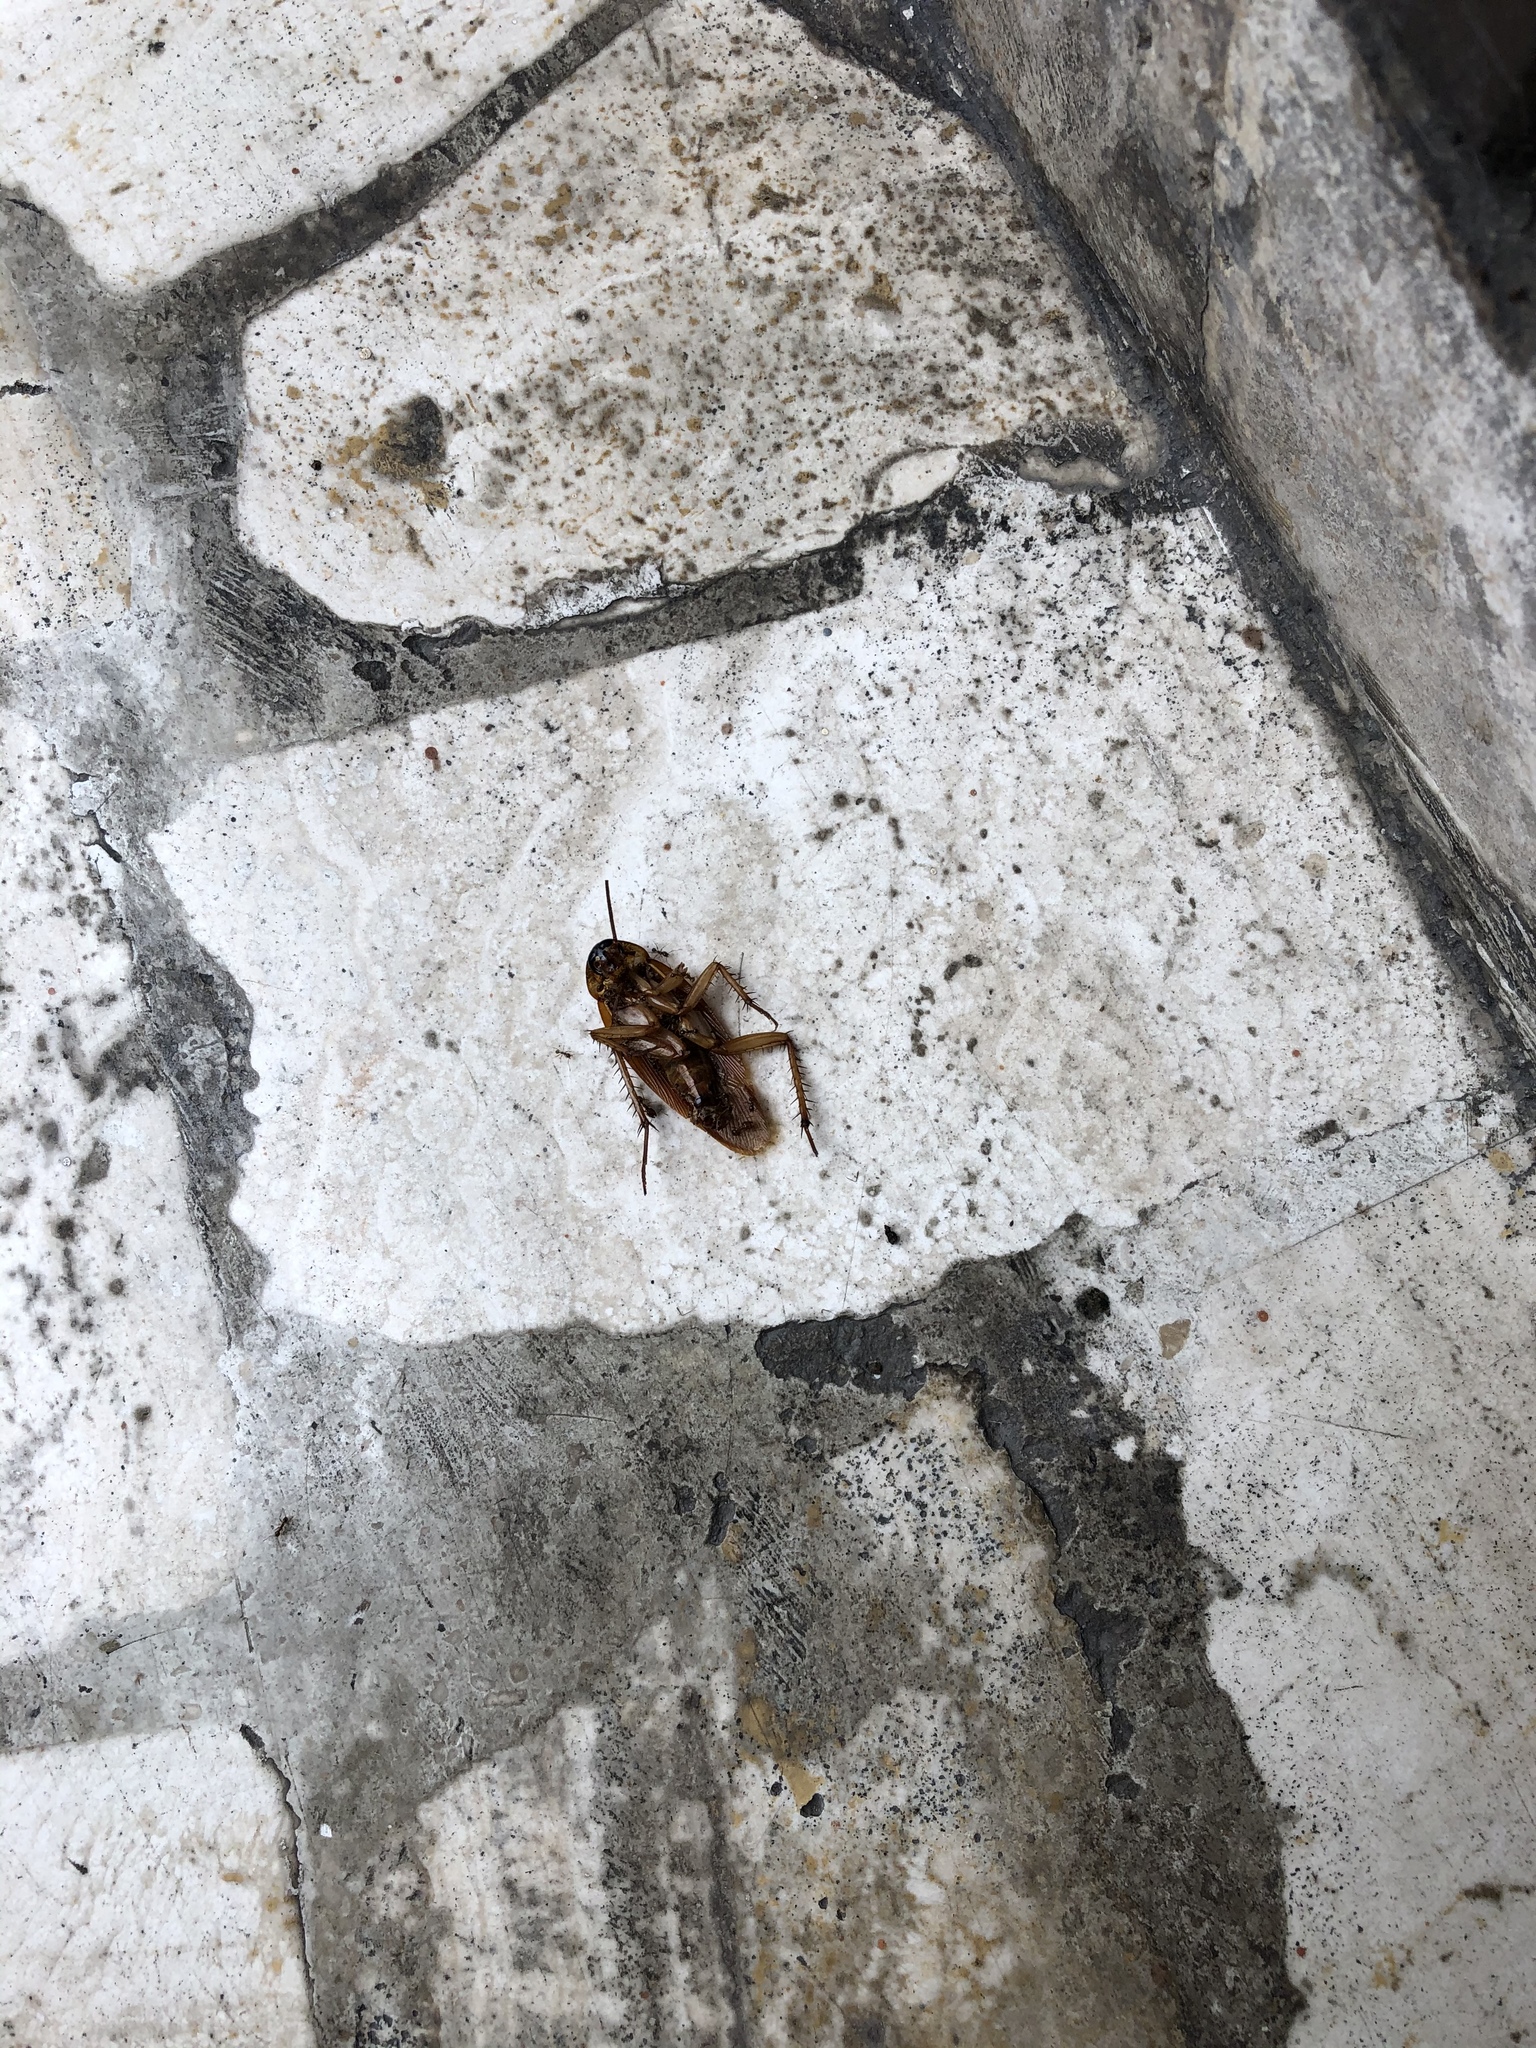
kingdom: Animalia
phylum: Arthropoda
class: Insecta
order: Blattodea
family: Blattidae
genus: Periplaneta
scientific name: Periplaneta americana
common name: American cockroach
